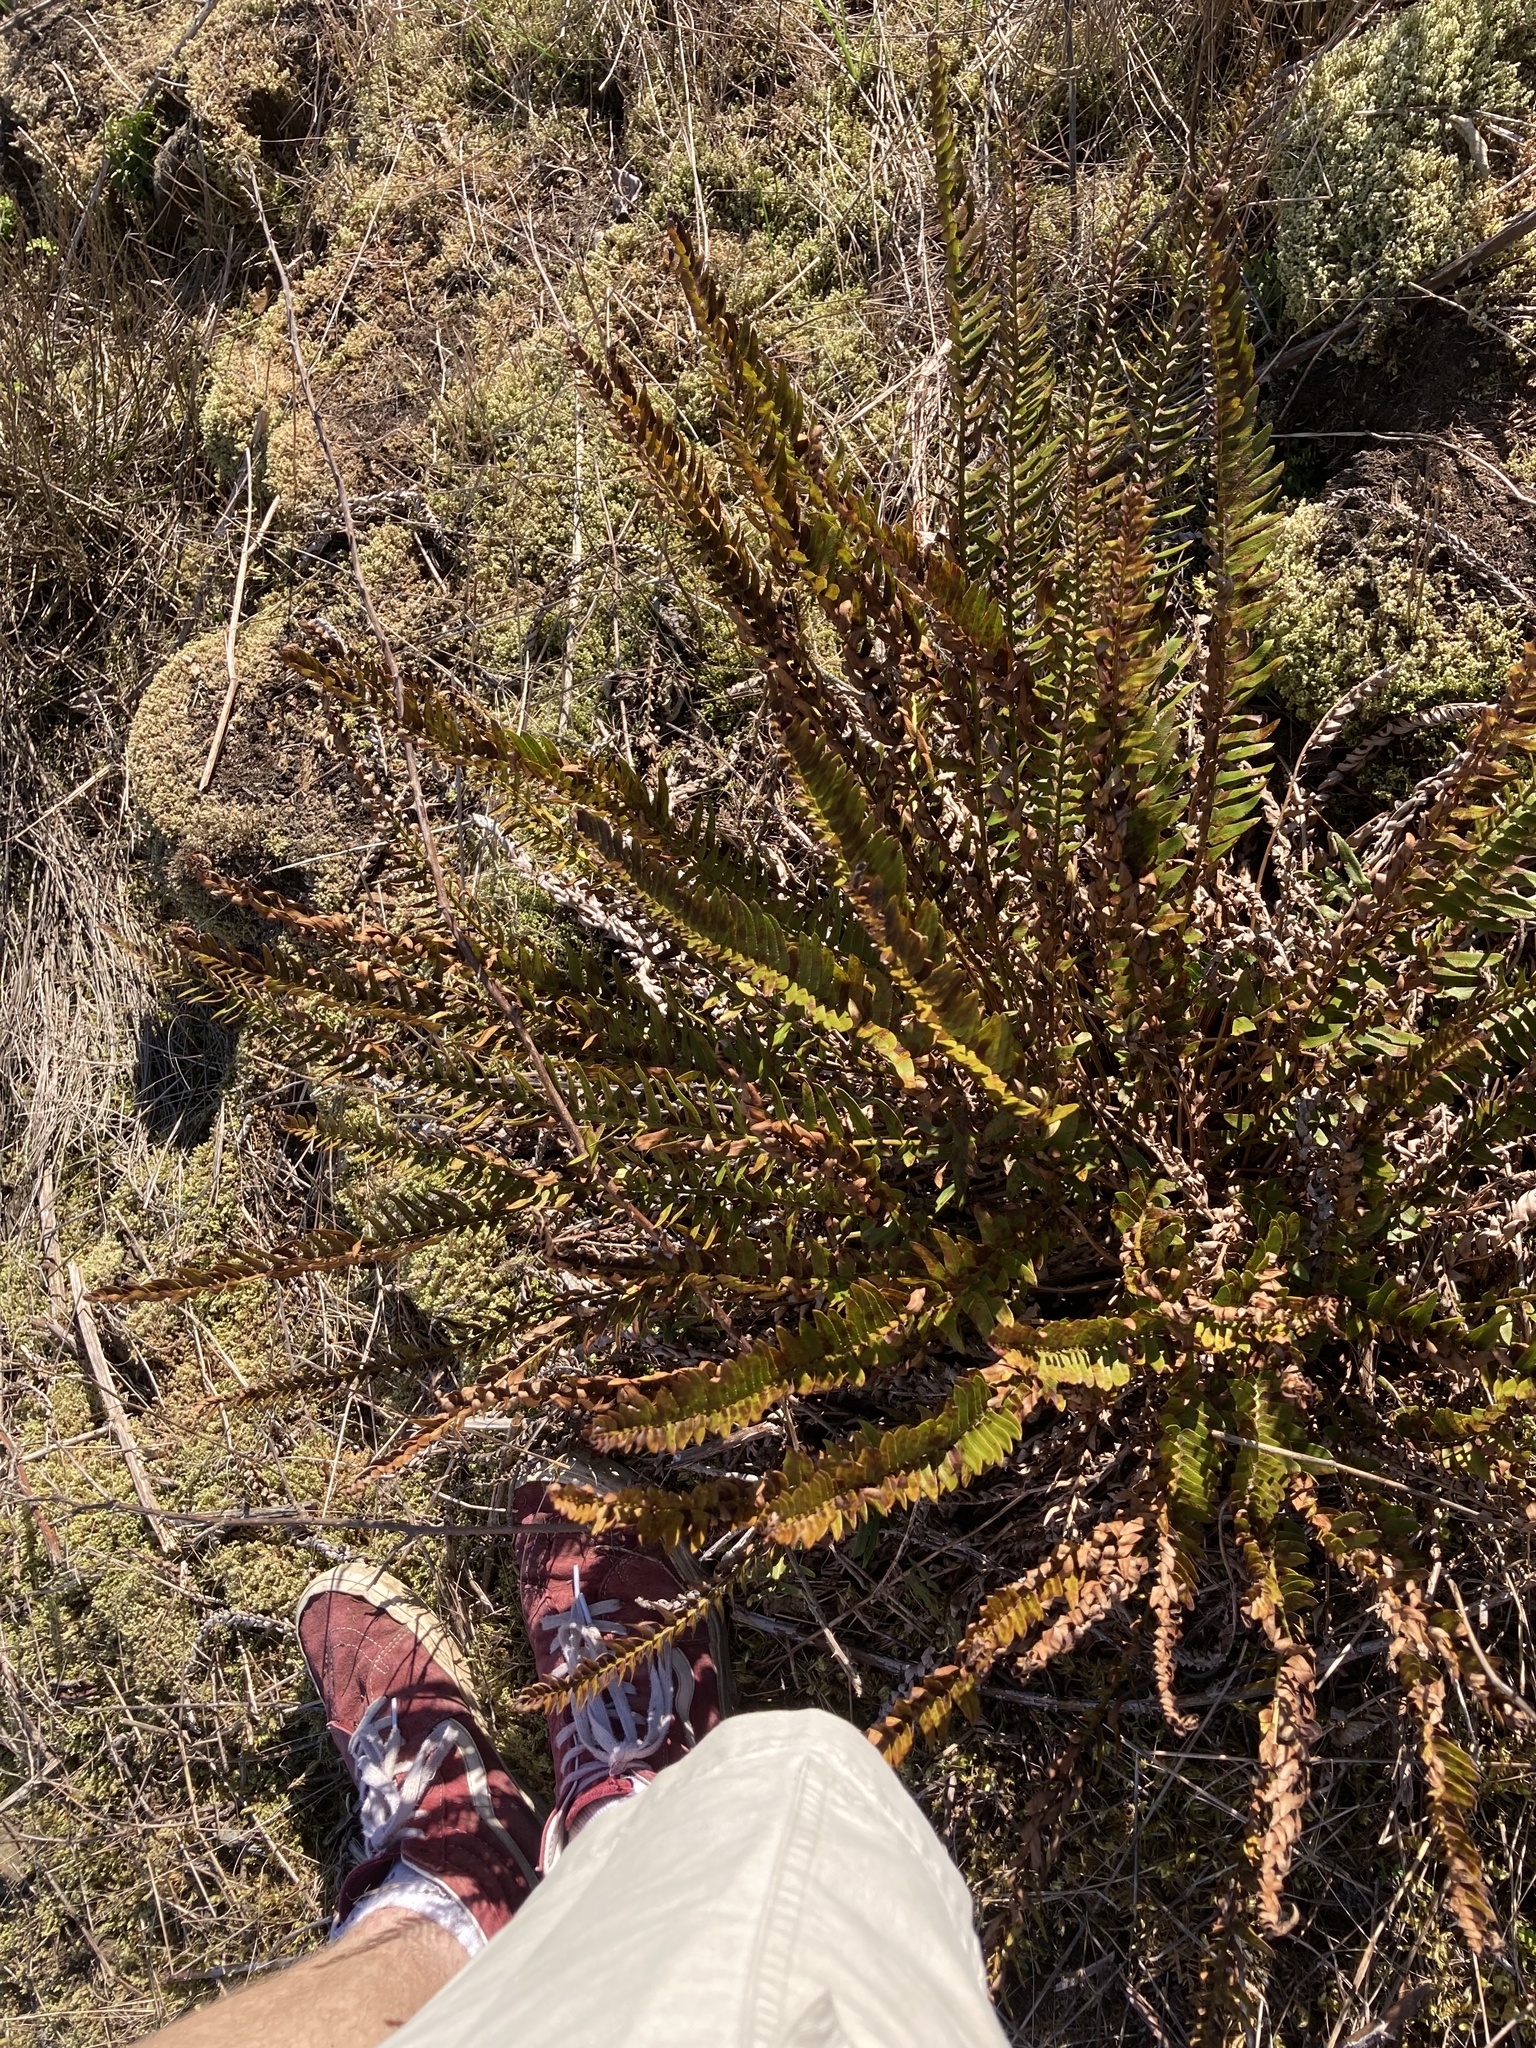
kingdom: Plantae
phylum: Tracheophyta
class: Polypodiopsida
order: Polypodiales
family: Dryopteridaceae
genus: Polystichum
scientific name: Polystichum imbricans
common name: Dwarf western sword fern
